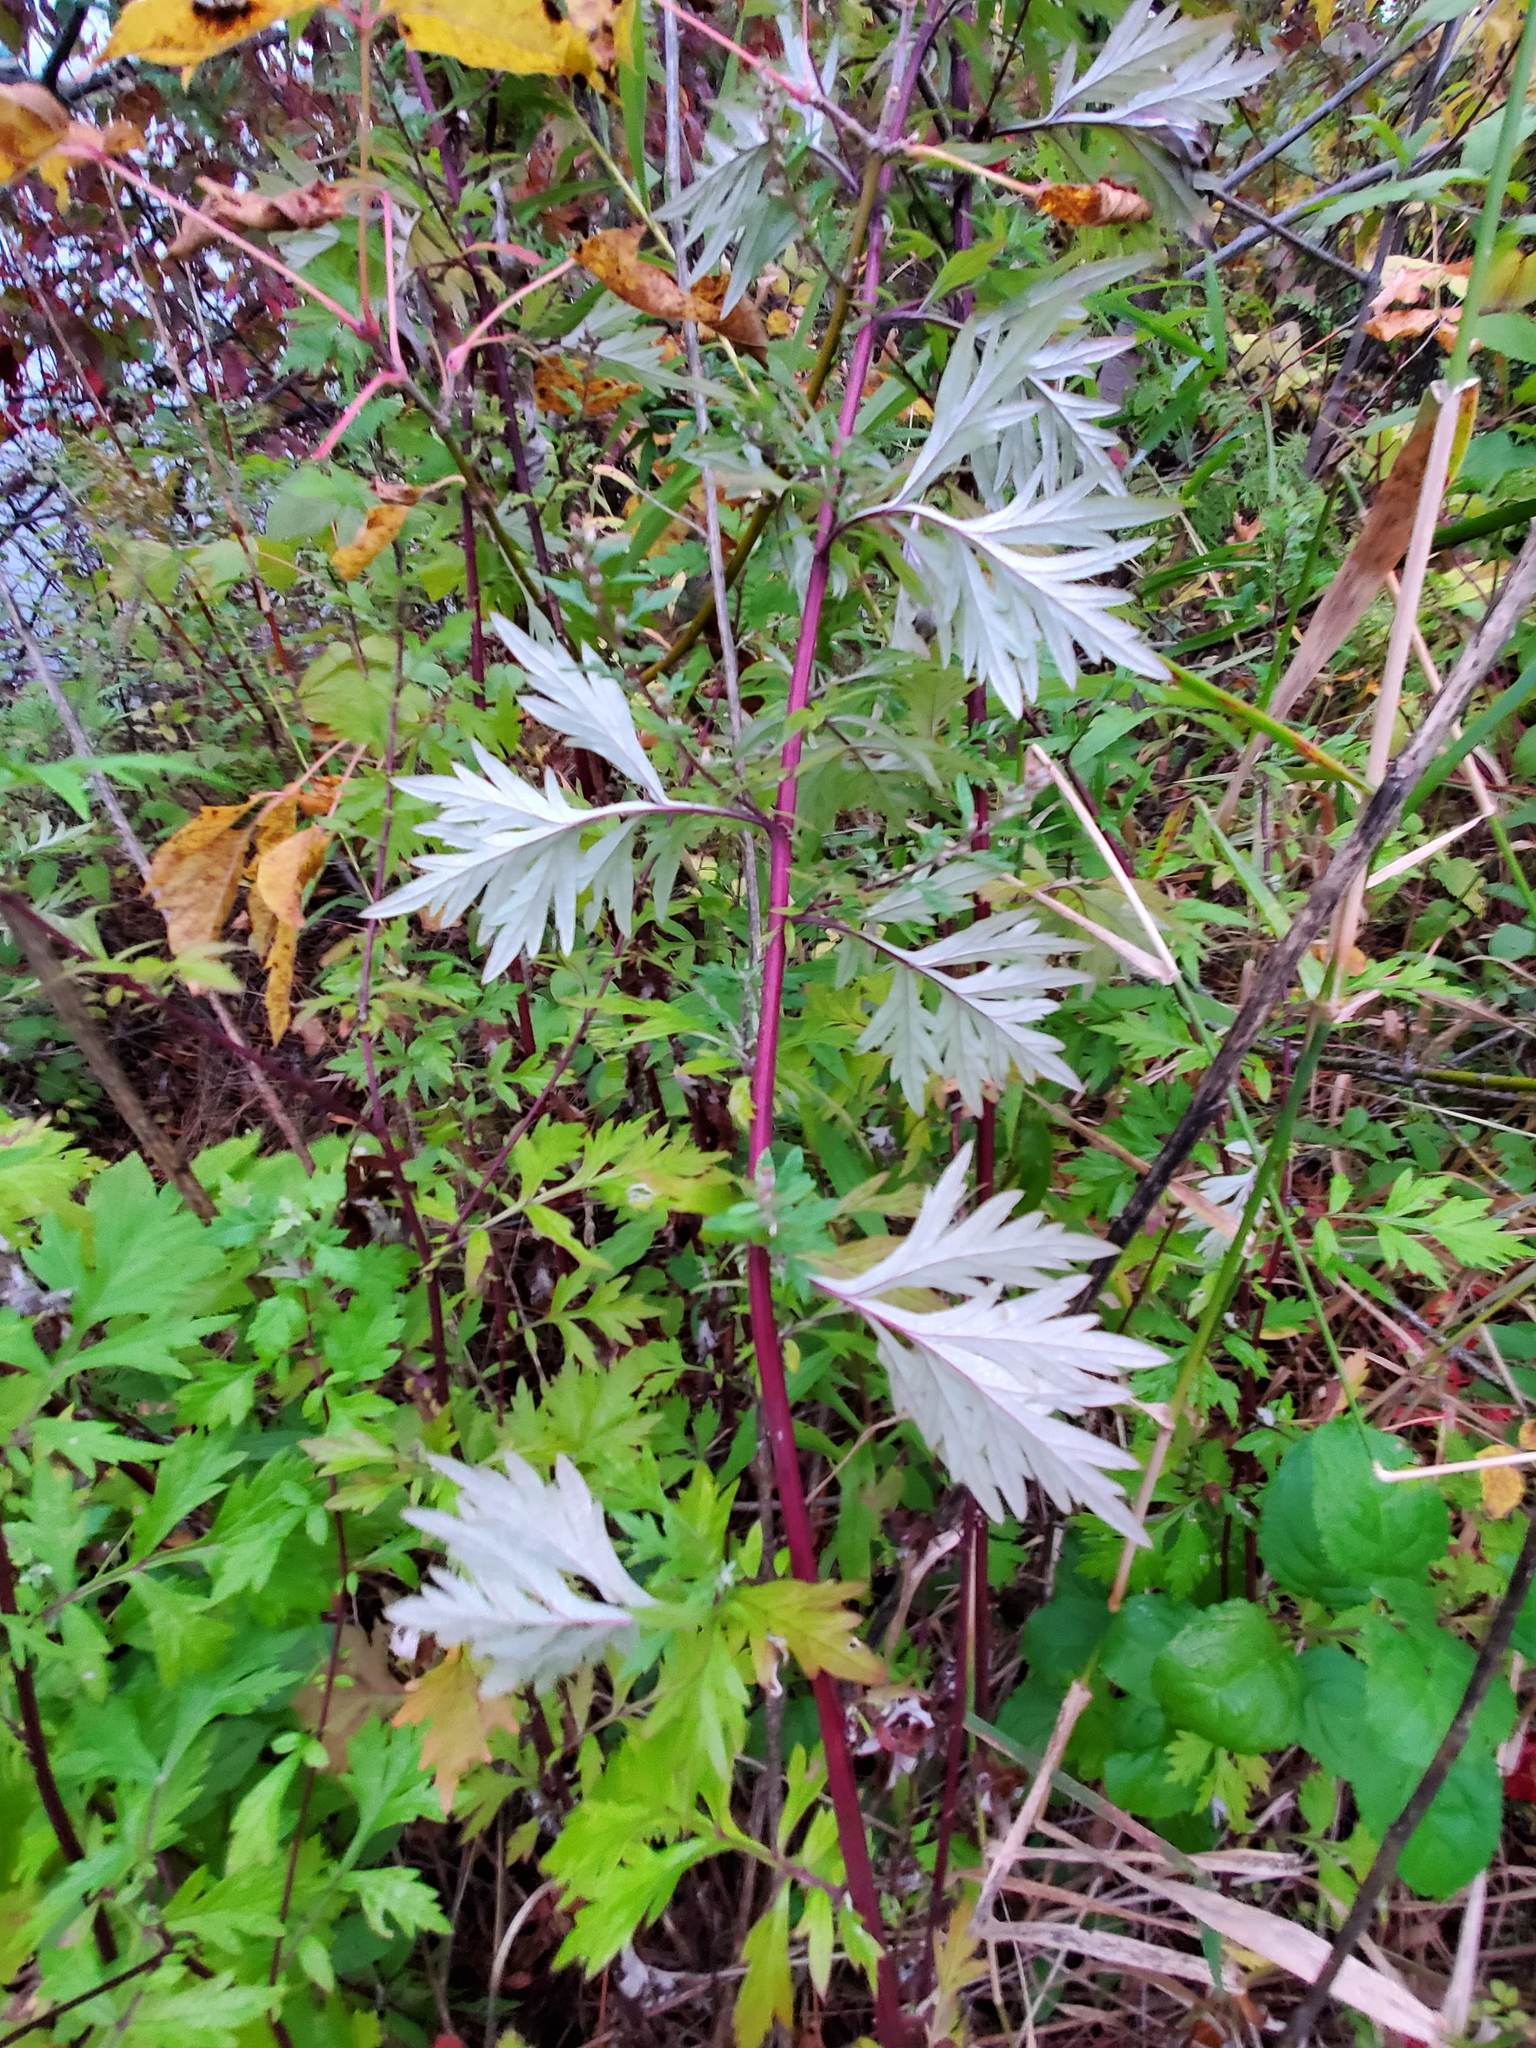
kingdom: Plantae
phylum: Tracheophyta
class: Magnoliopsida
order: Asterales
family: Asteraceae
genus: Artemisia
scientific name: Artemisia vulgaris
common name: Mugwort
